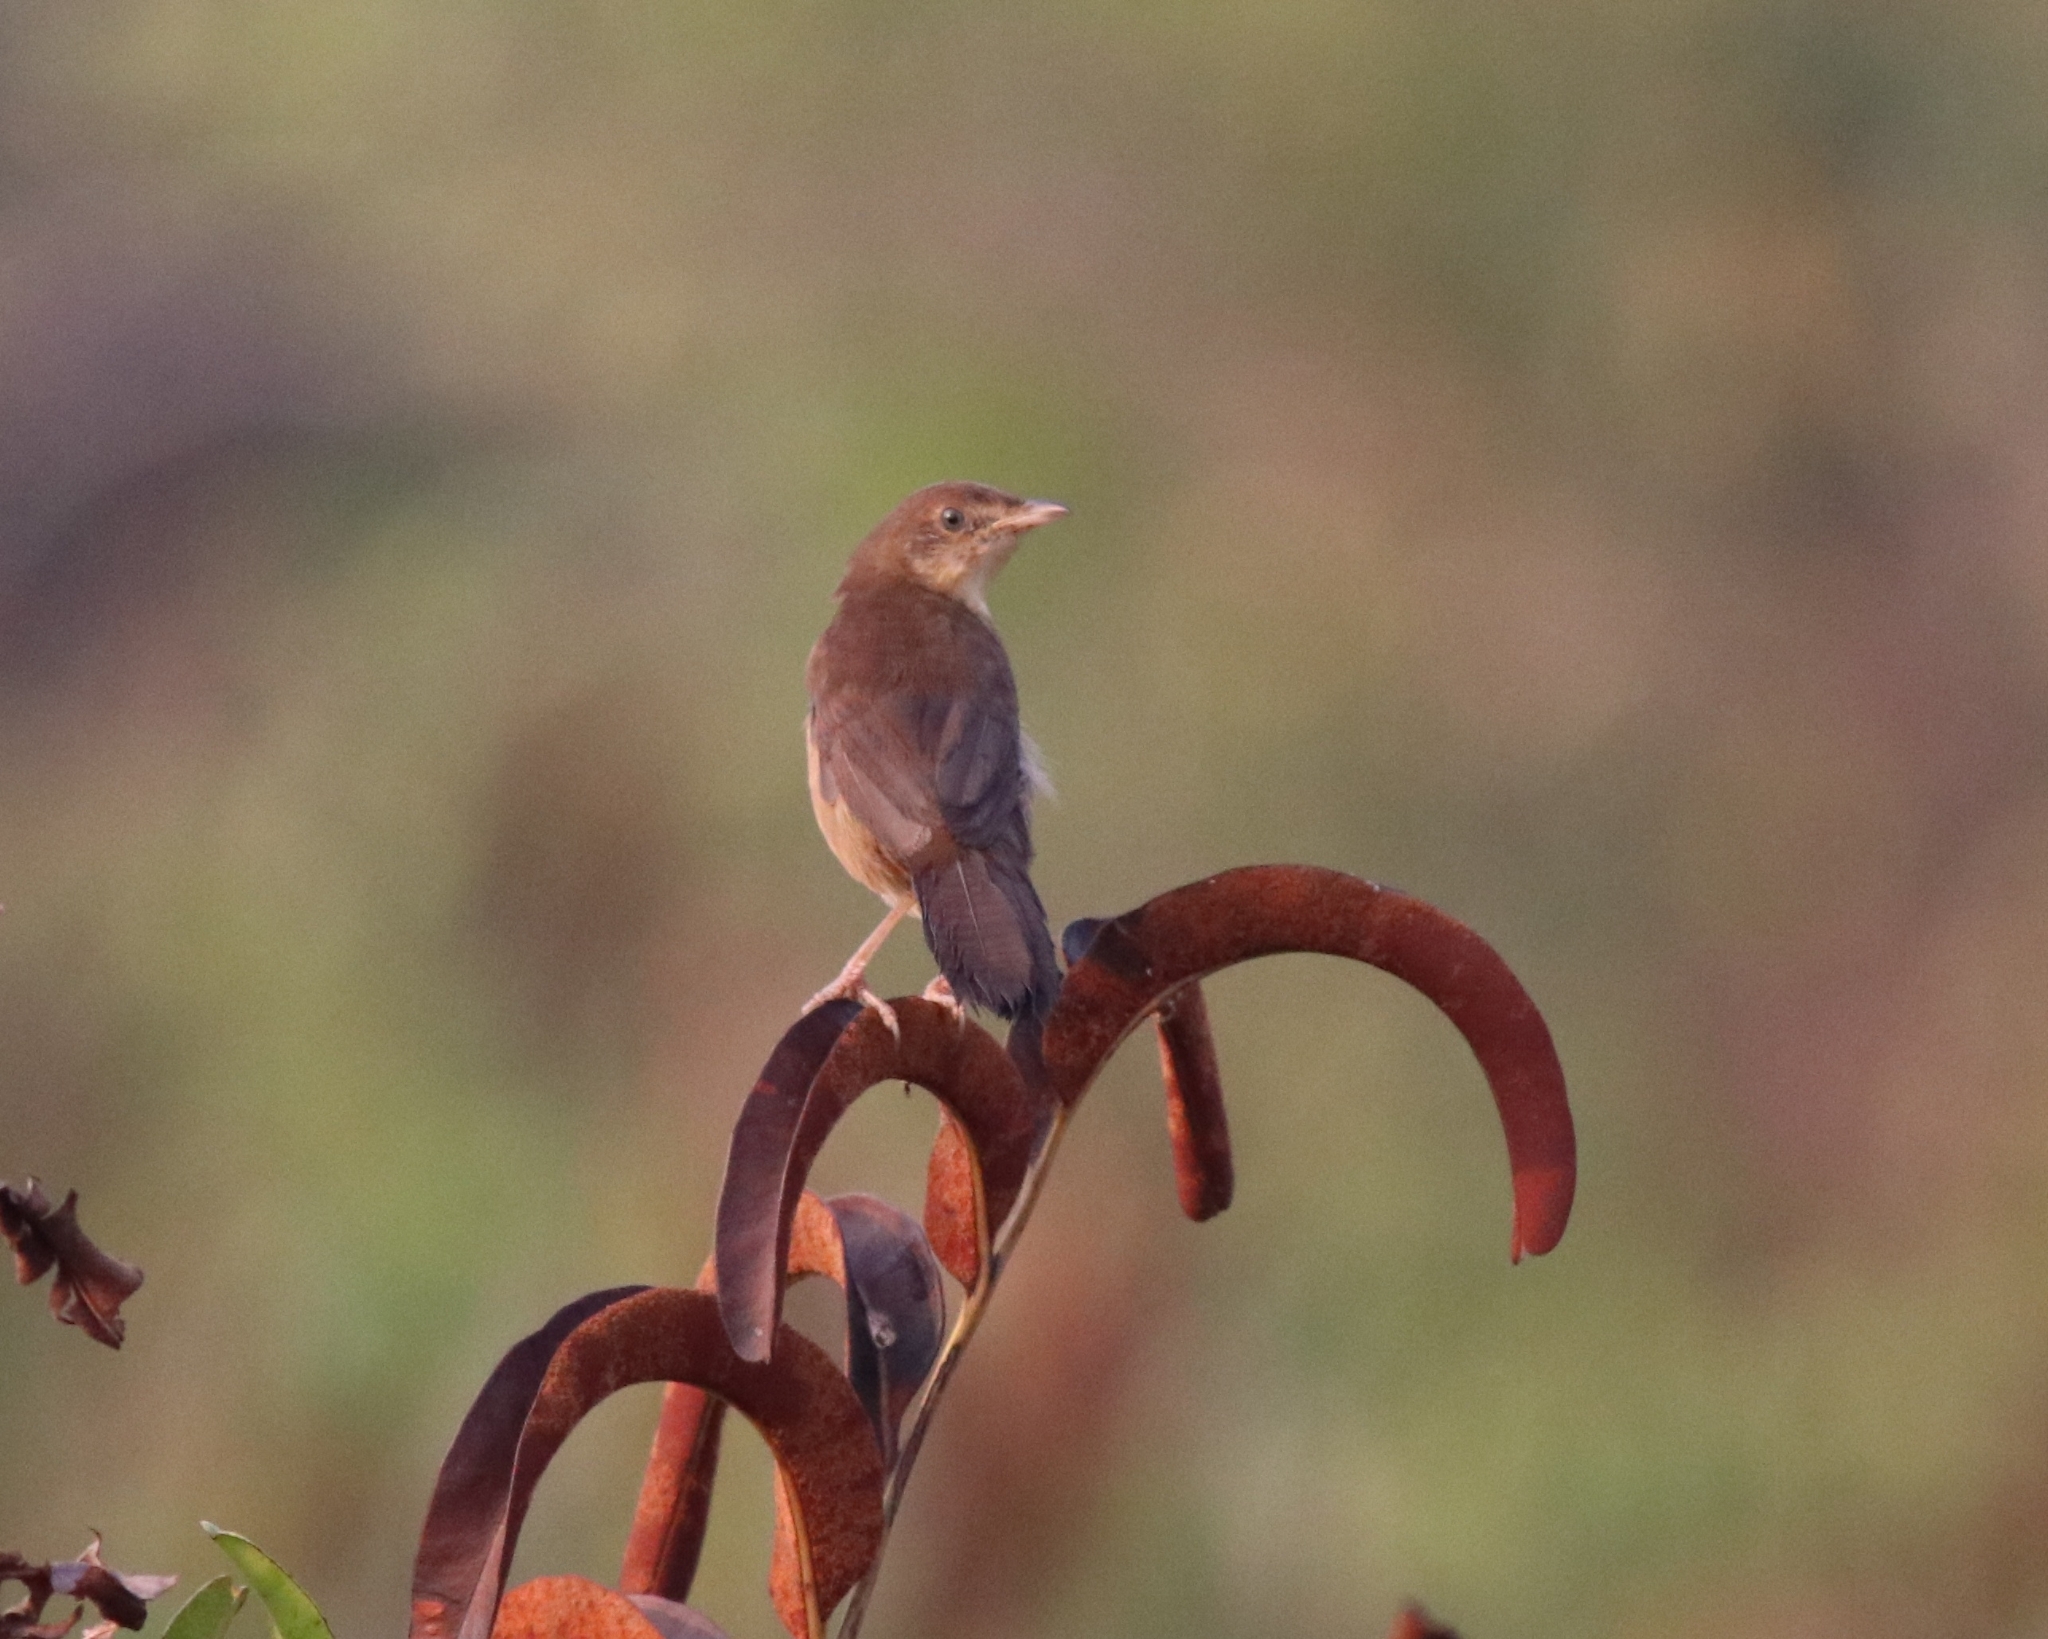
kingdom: Animalia
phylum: Chordata
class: Aves
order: Passeriformes
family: Locustellidae
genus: Schoenicola
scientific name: Schoenicola platyurus
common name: Broad-tailed grassbird
